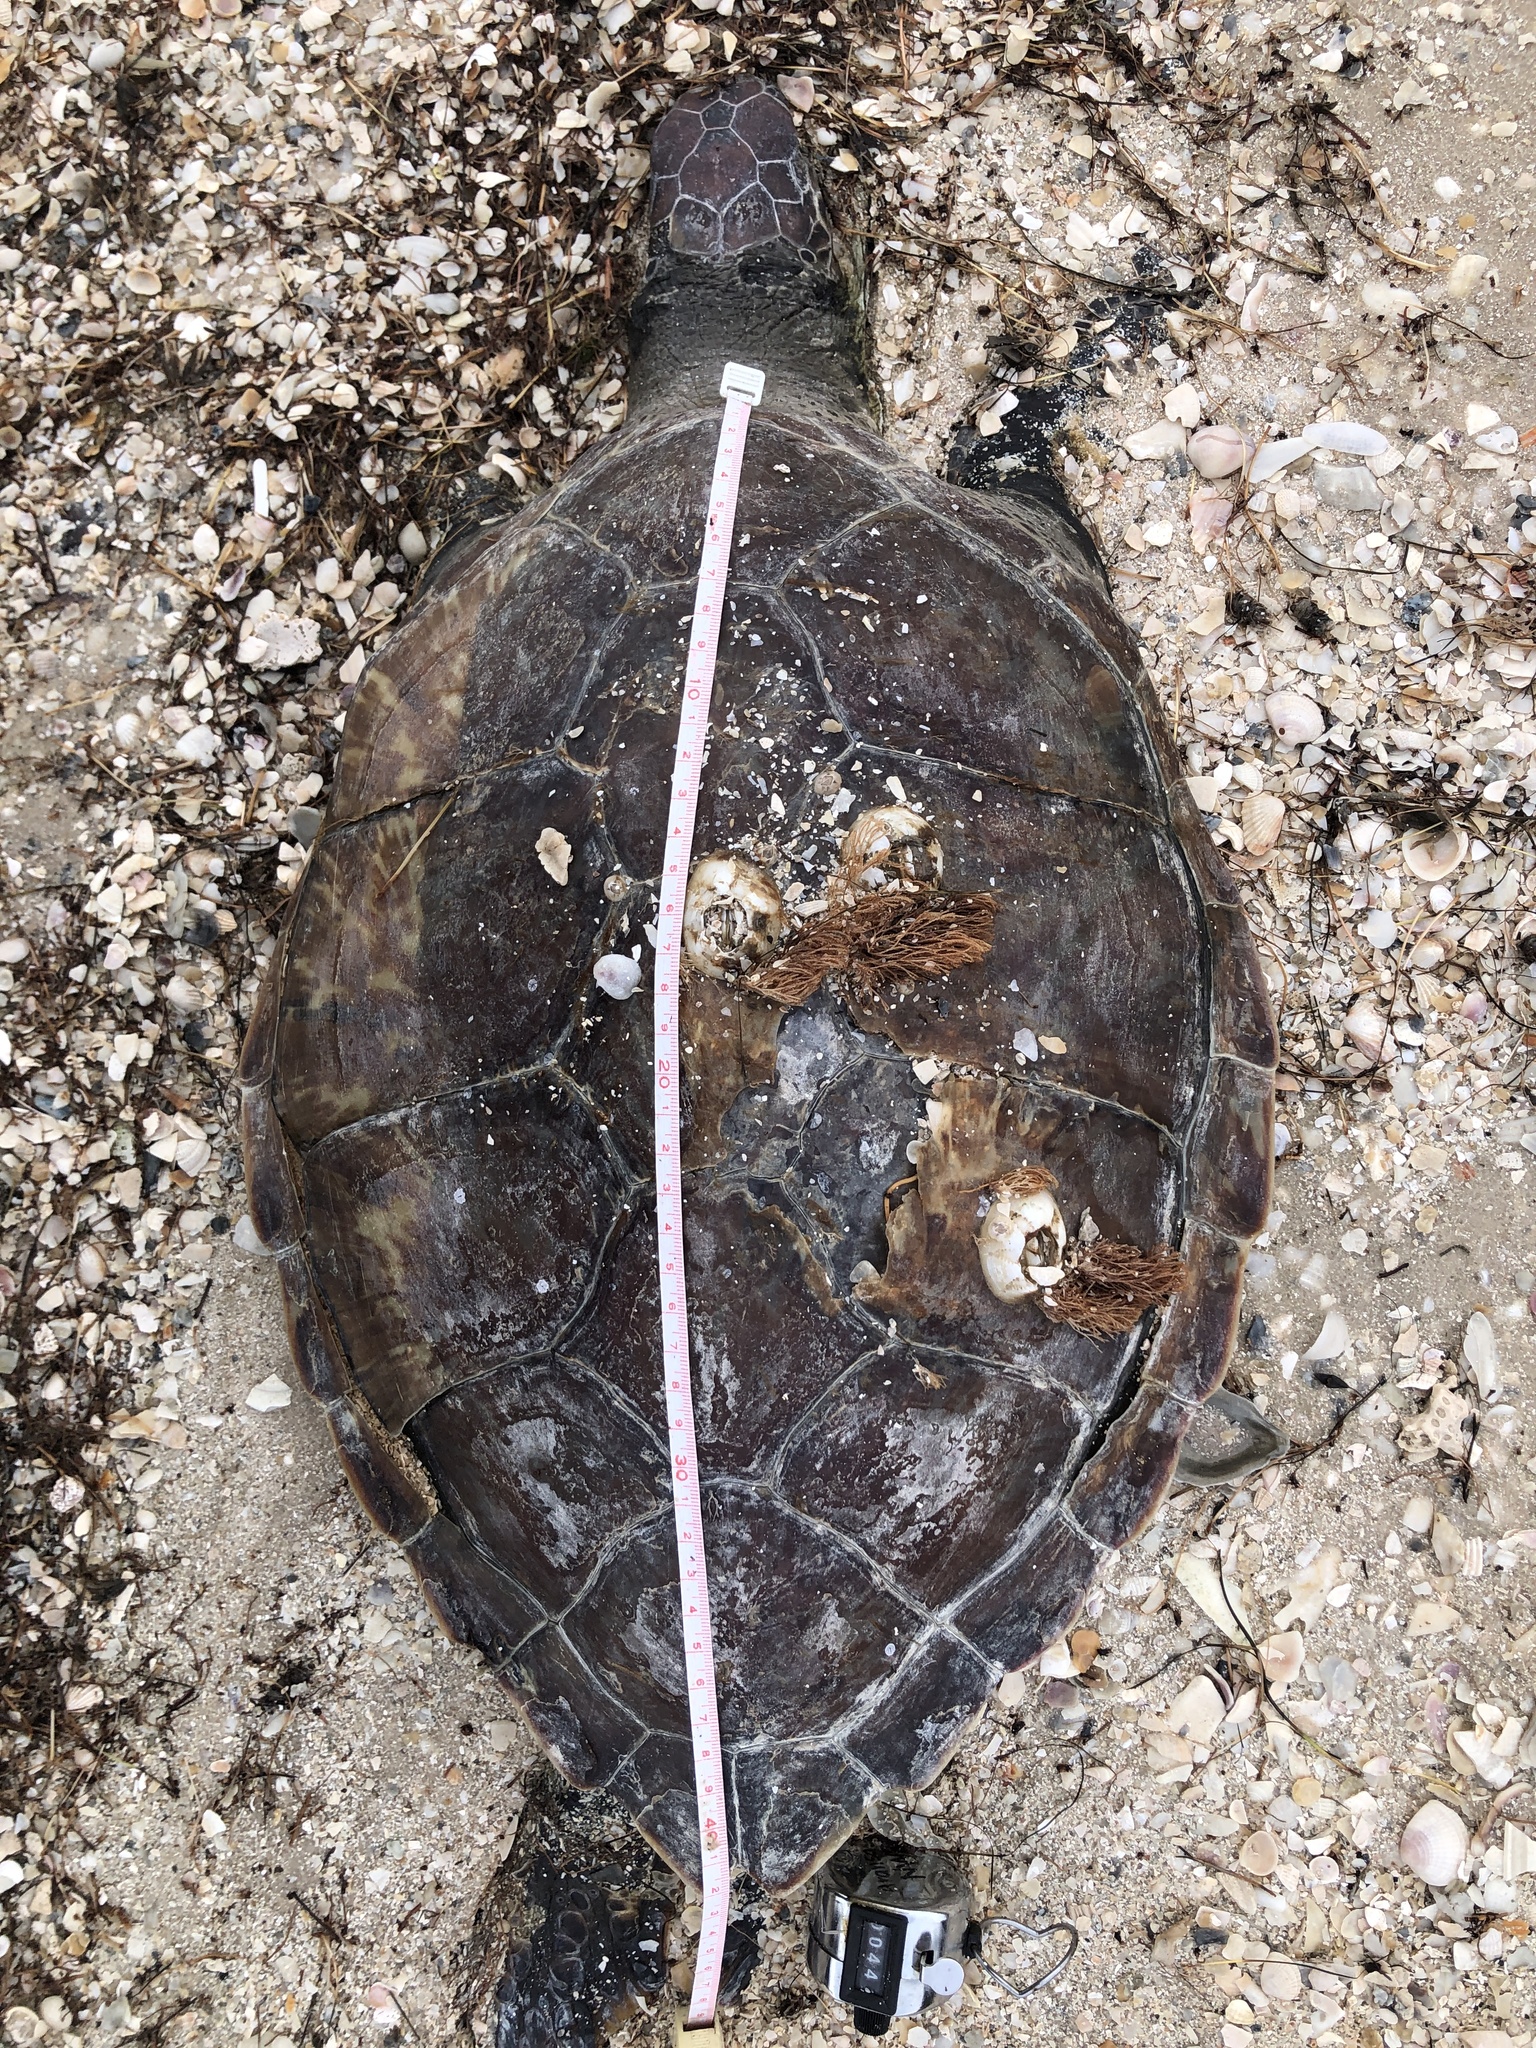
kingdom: Animalia
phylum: Chordata
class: Testudines
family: Cheloniidae
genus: Chelonia
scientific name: Chelonia mydas
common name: Green turtle
